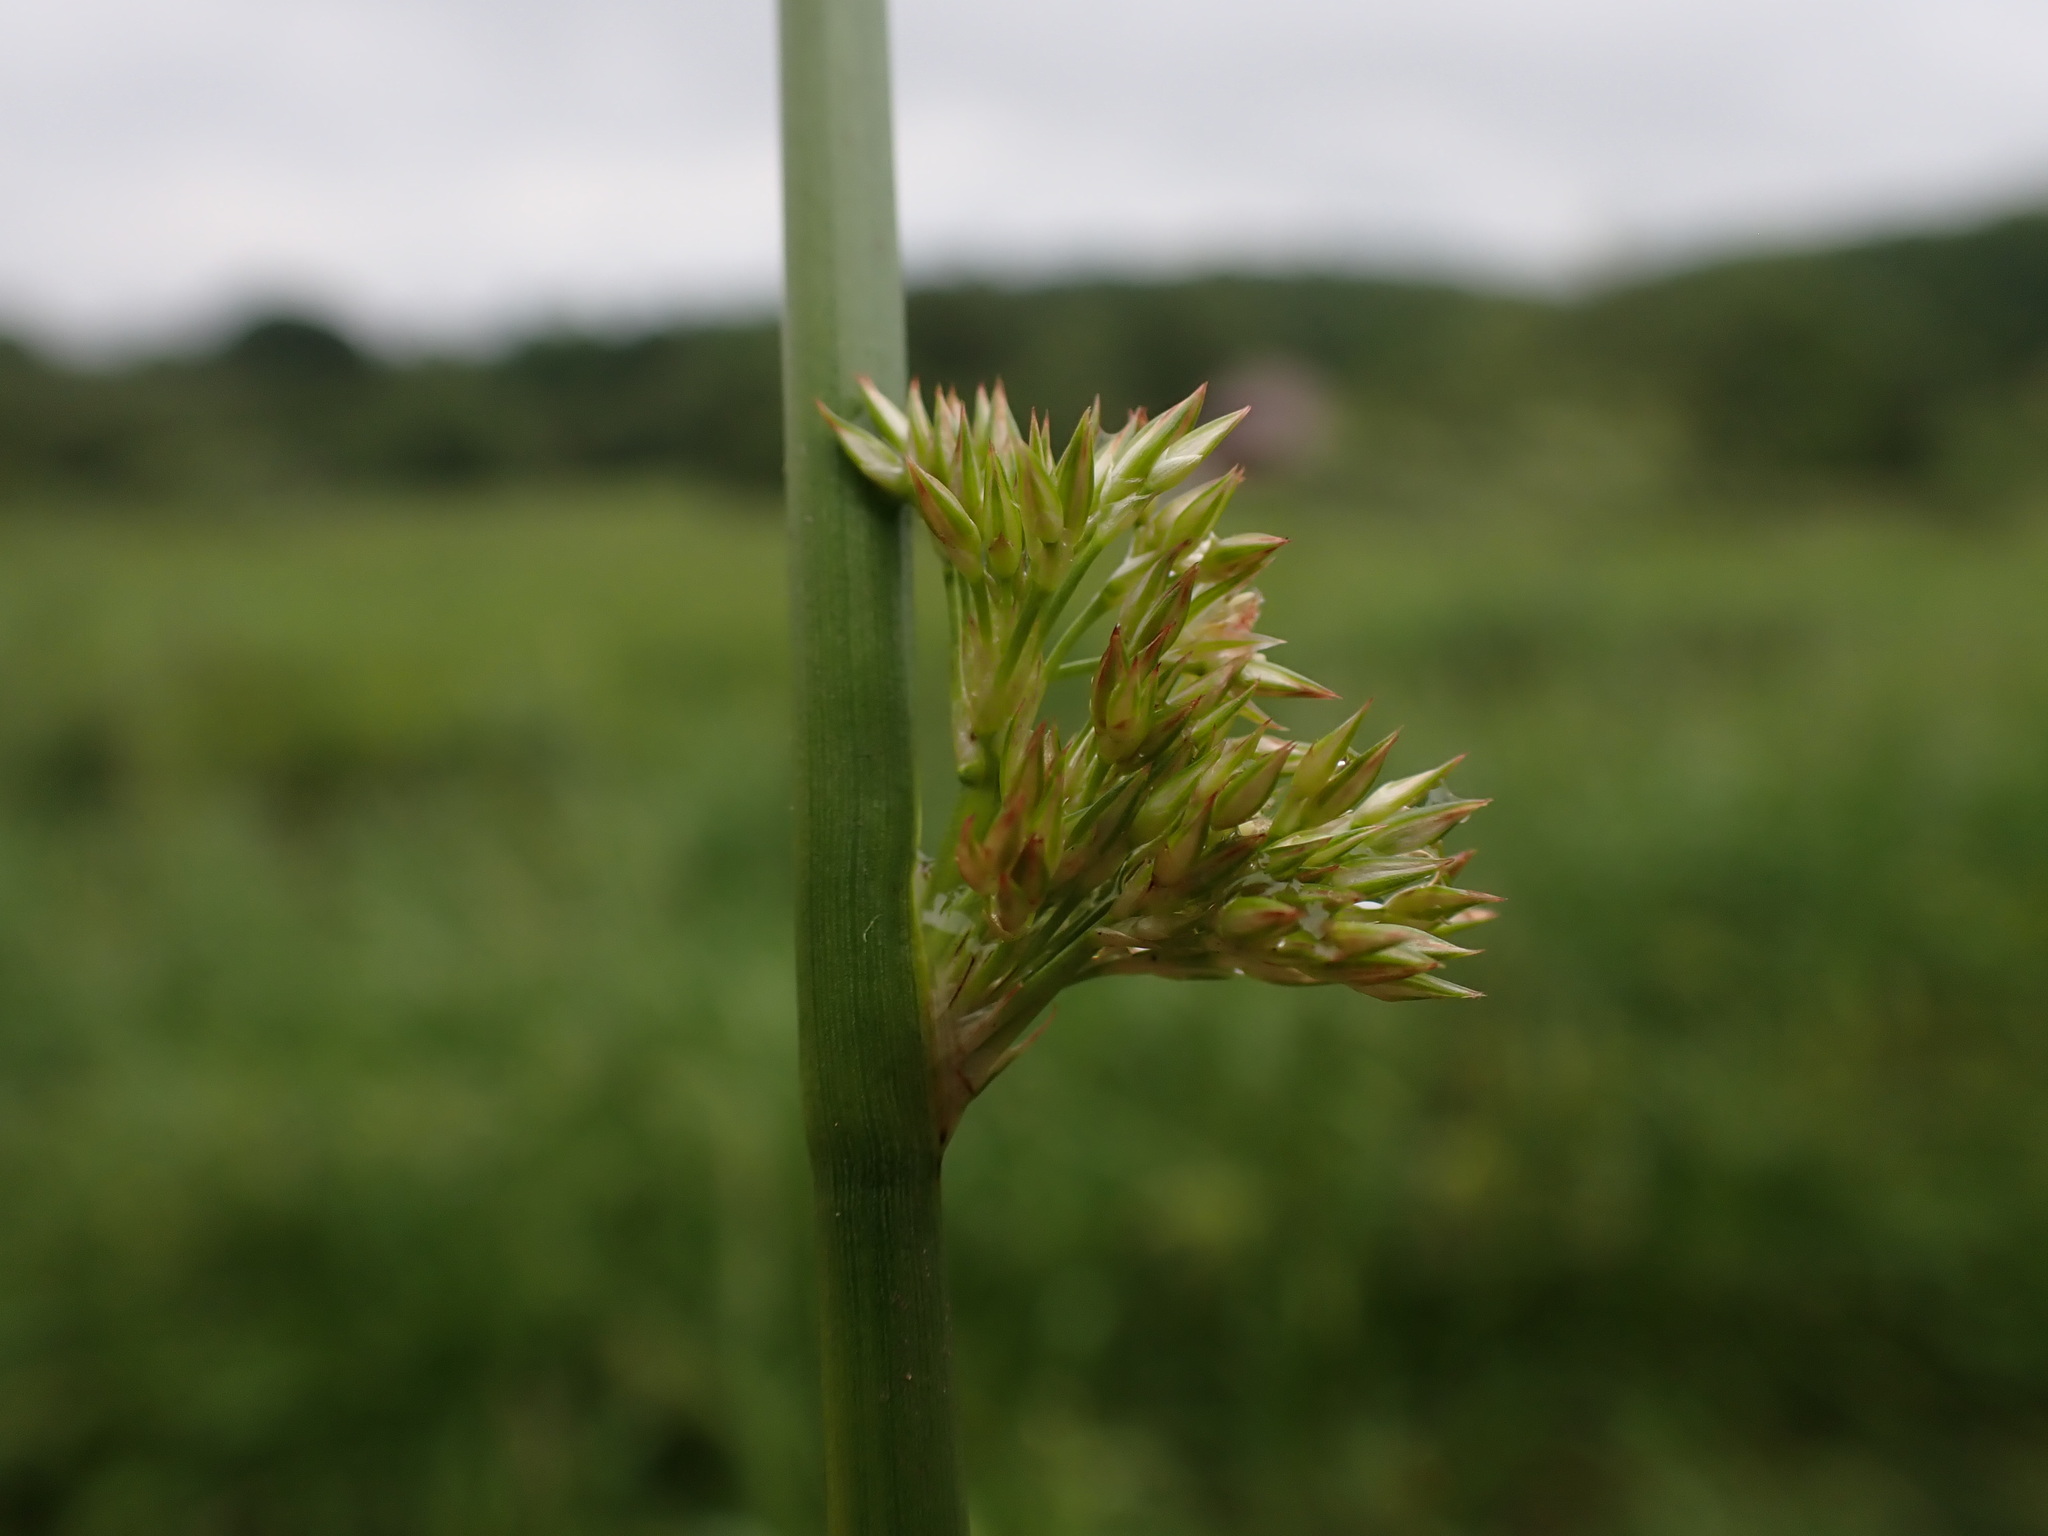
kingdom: Plantae
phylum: Tracheophyta
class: Liliopsida
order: Poales
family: Juncaceae
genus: Juncus
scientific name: Juncus effusus
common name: Soft rush
